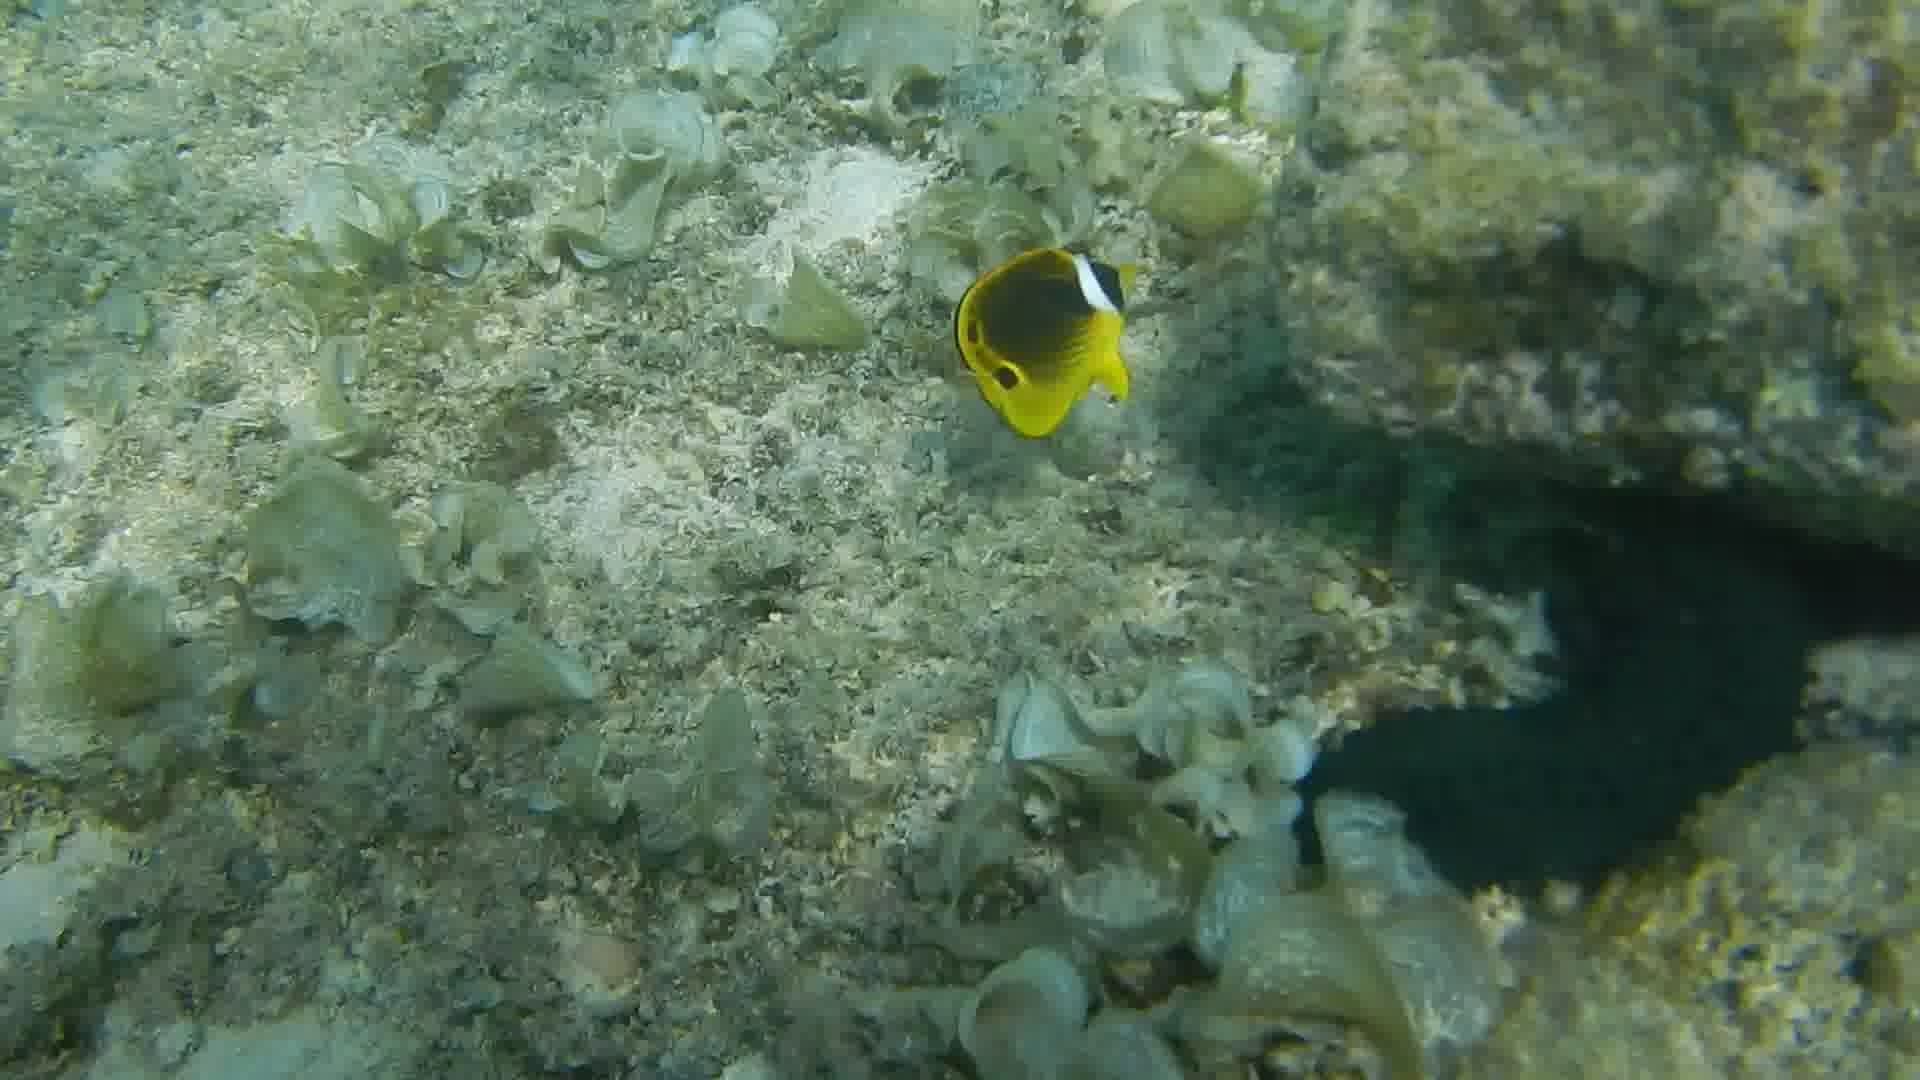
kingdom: Animalia
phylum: Chordata
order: Perciformes
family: Chaetodontidae
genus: Chaetodon
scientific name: Chaetodon lunula
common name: Raccoon butterflyfish
